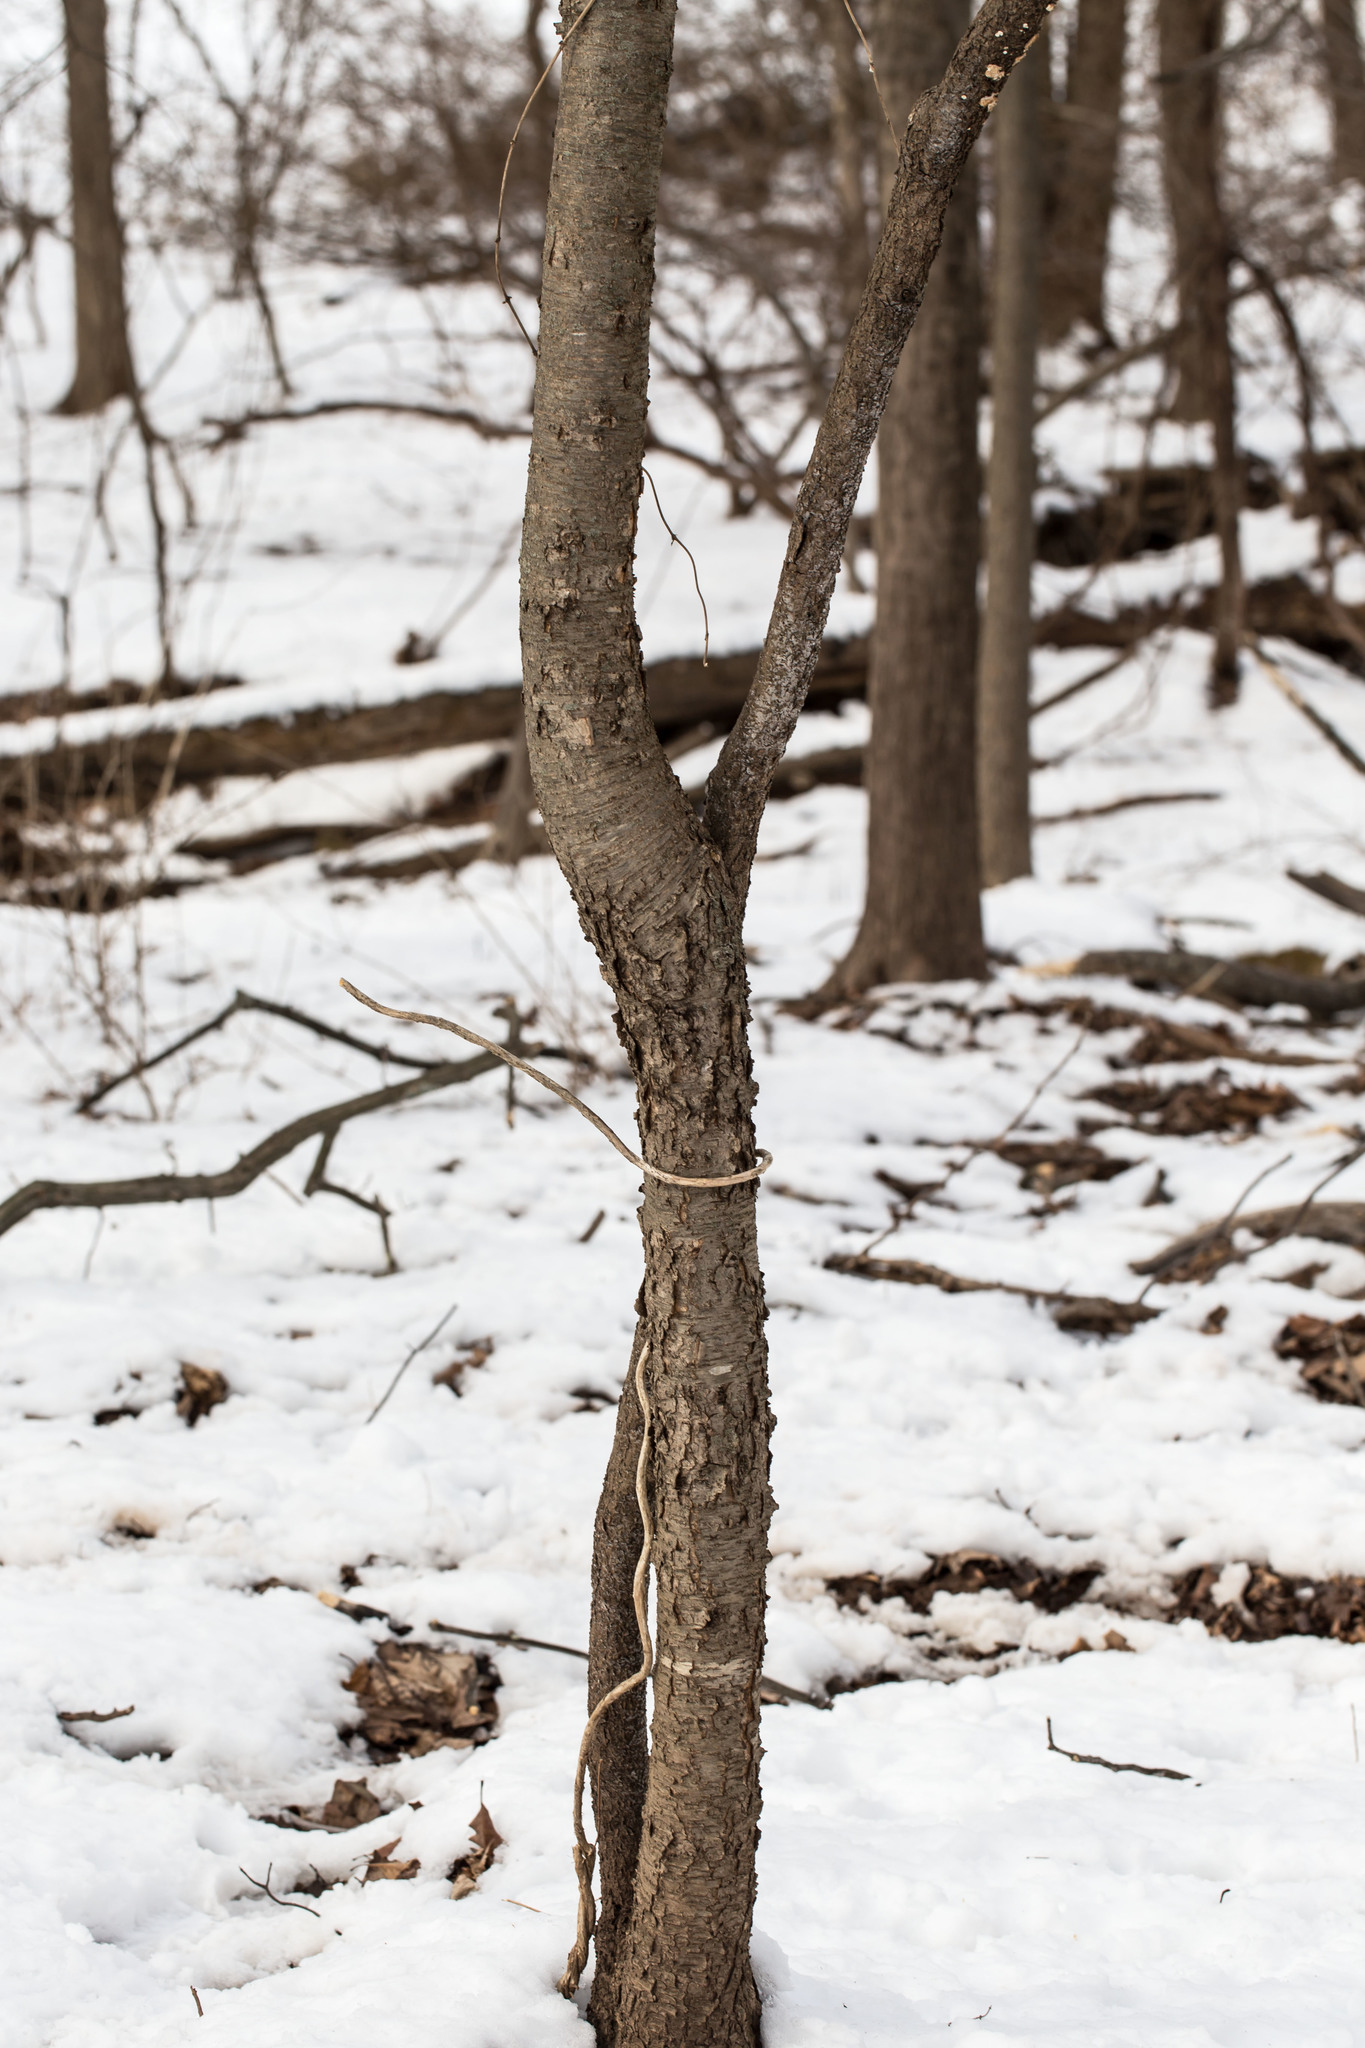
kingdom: Plantae
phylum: Tracheophyta
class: Magnoliopsida
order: Rosales
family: Rosaceae
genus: Prunus
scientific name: Prunus serotina
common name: Black cherry
